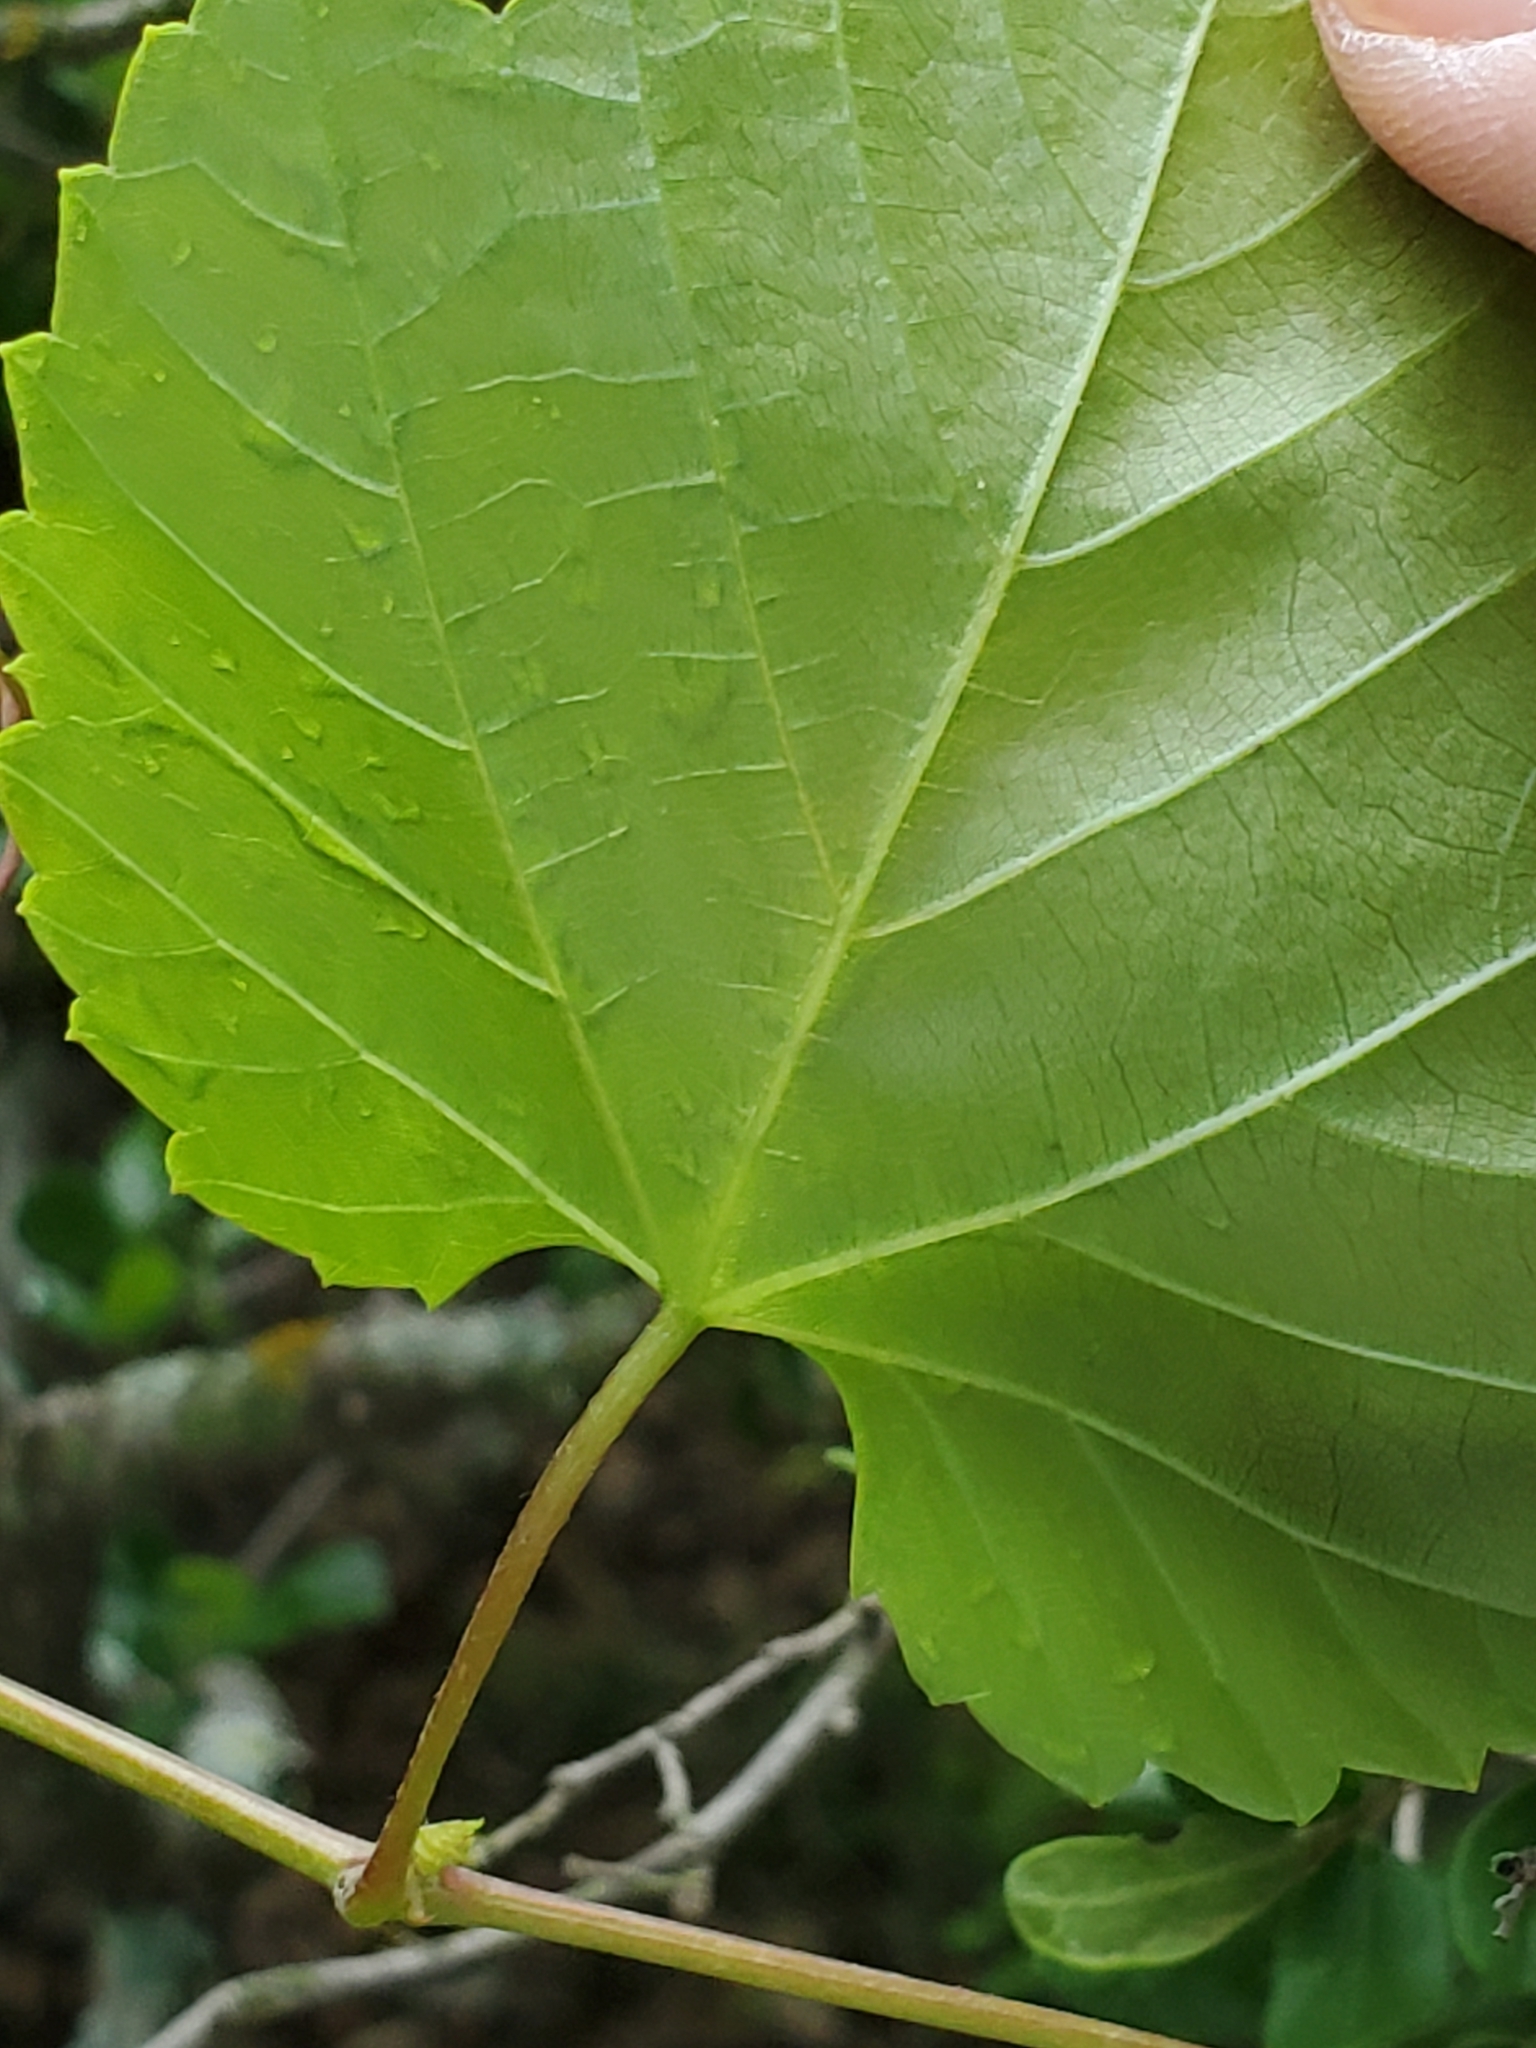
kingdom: Plantae
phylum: Tracheophyta
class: Magnoliopsida
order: Vitales
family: Vitaceae
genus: Vitis
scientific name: Vitis monticola
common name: Mountain grape
